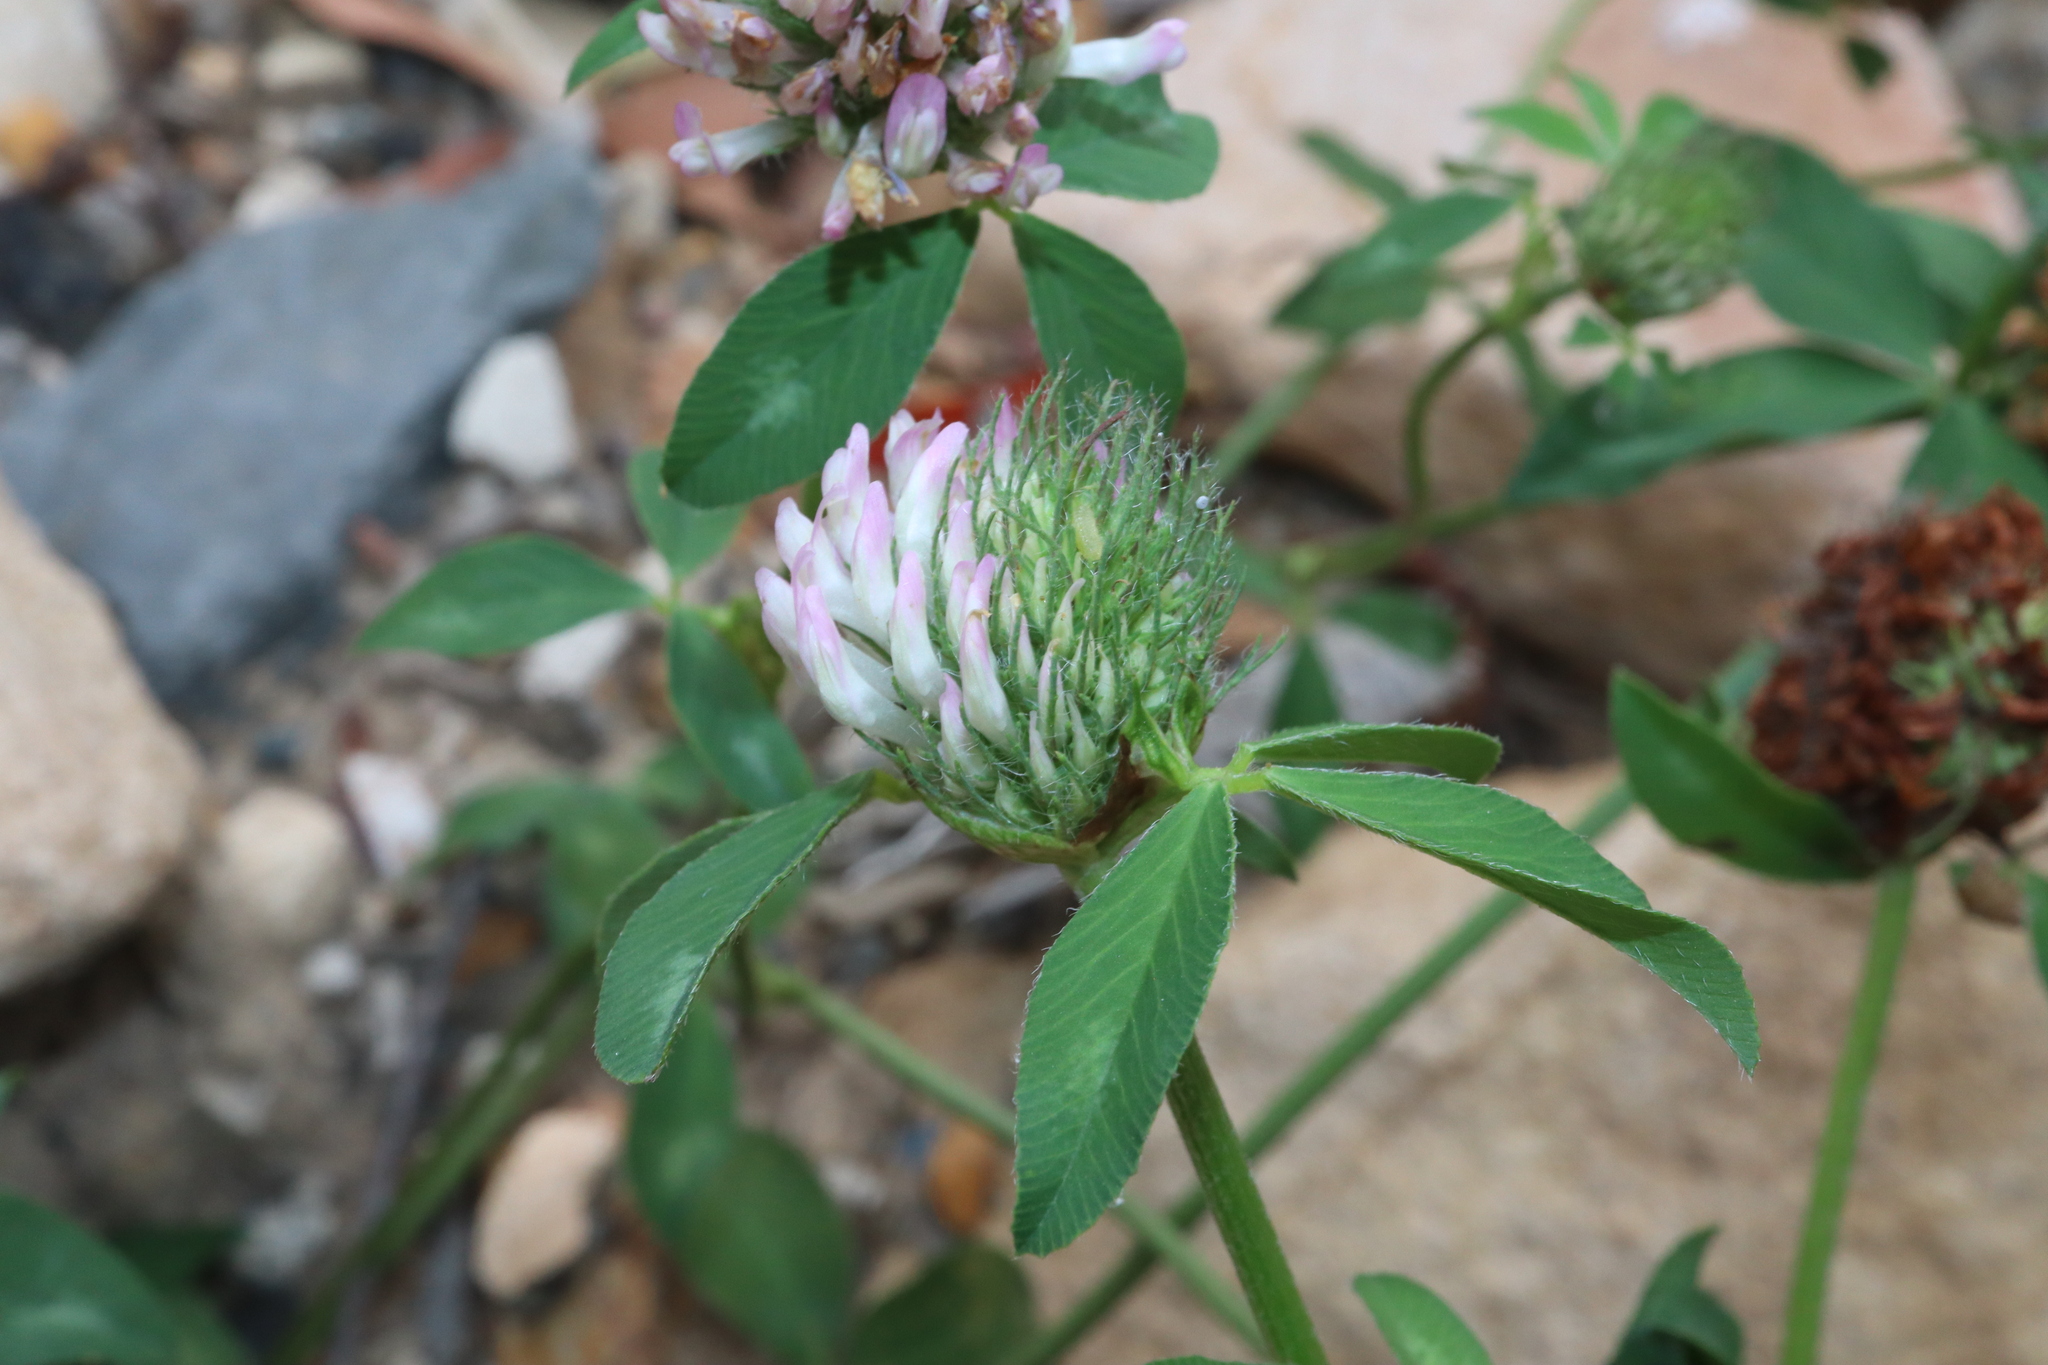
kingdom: Plantae
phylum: Tracheophyta
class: Magnoliopsida
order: Fabales
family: Fabaceae
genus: Trifolium
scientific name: Trifolium pratense
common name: Red clover
